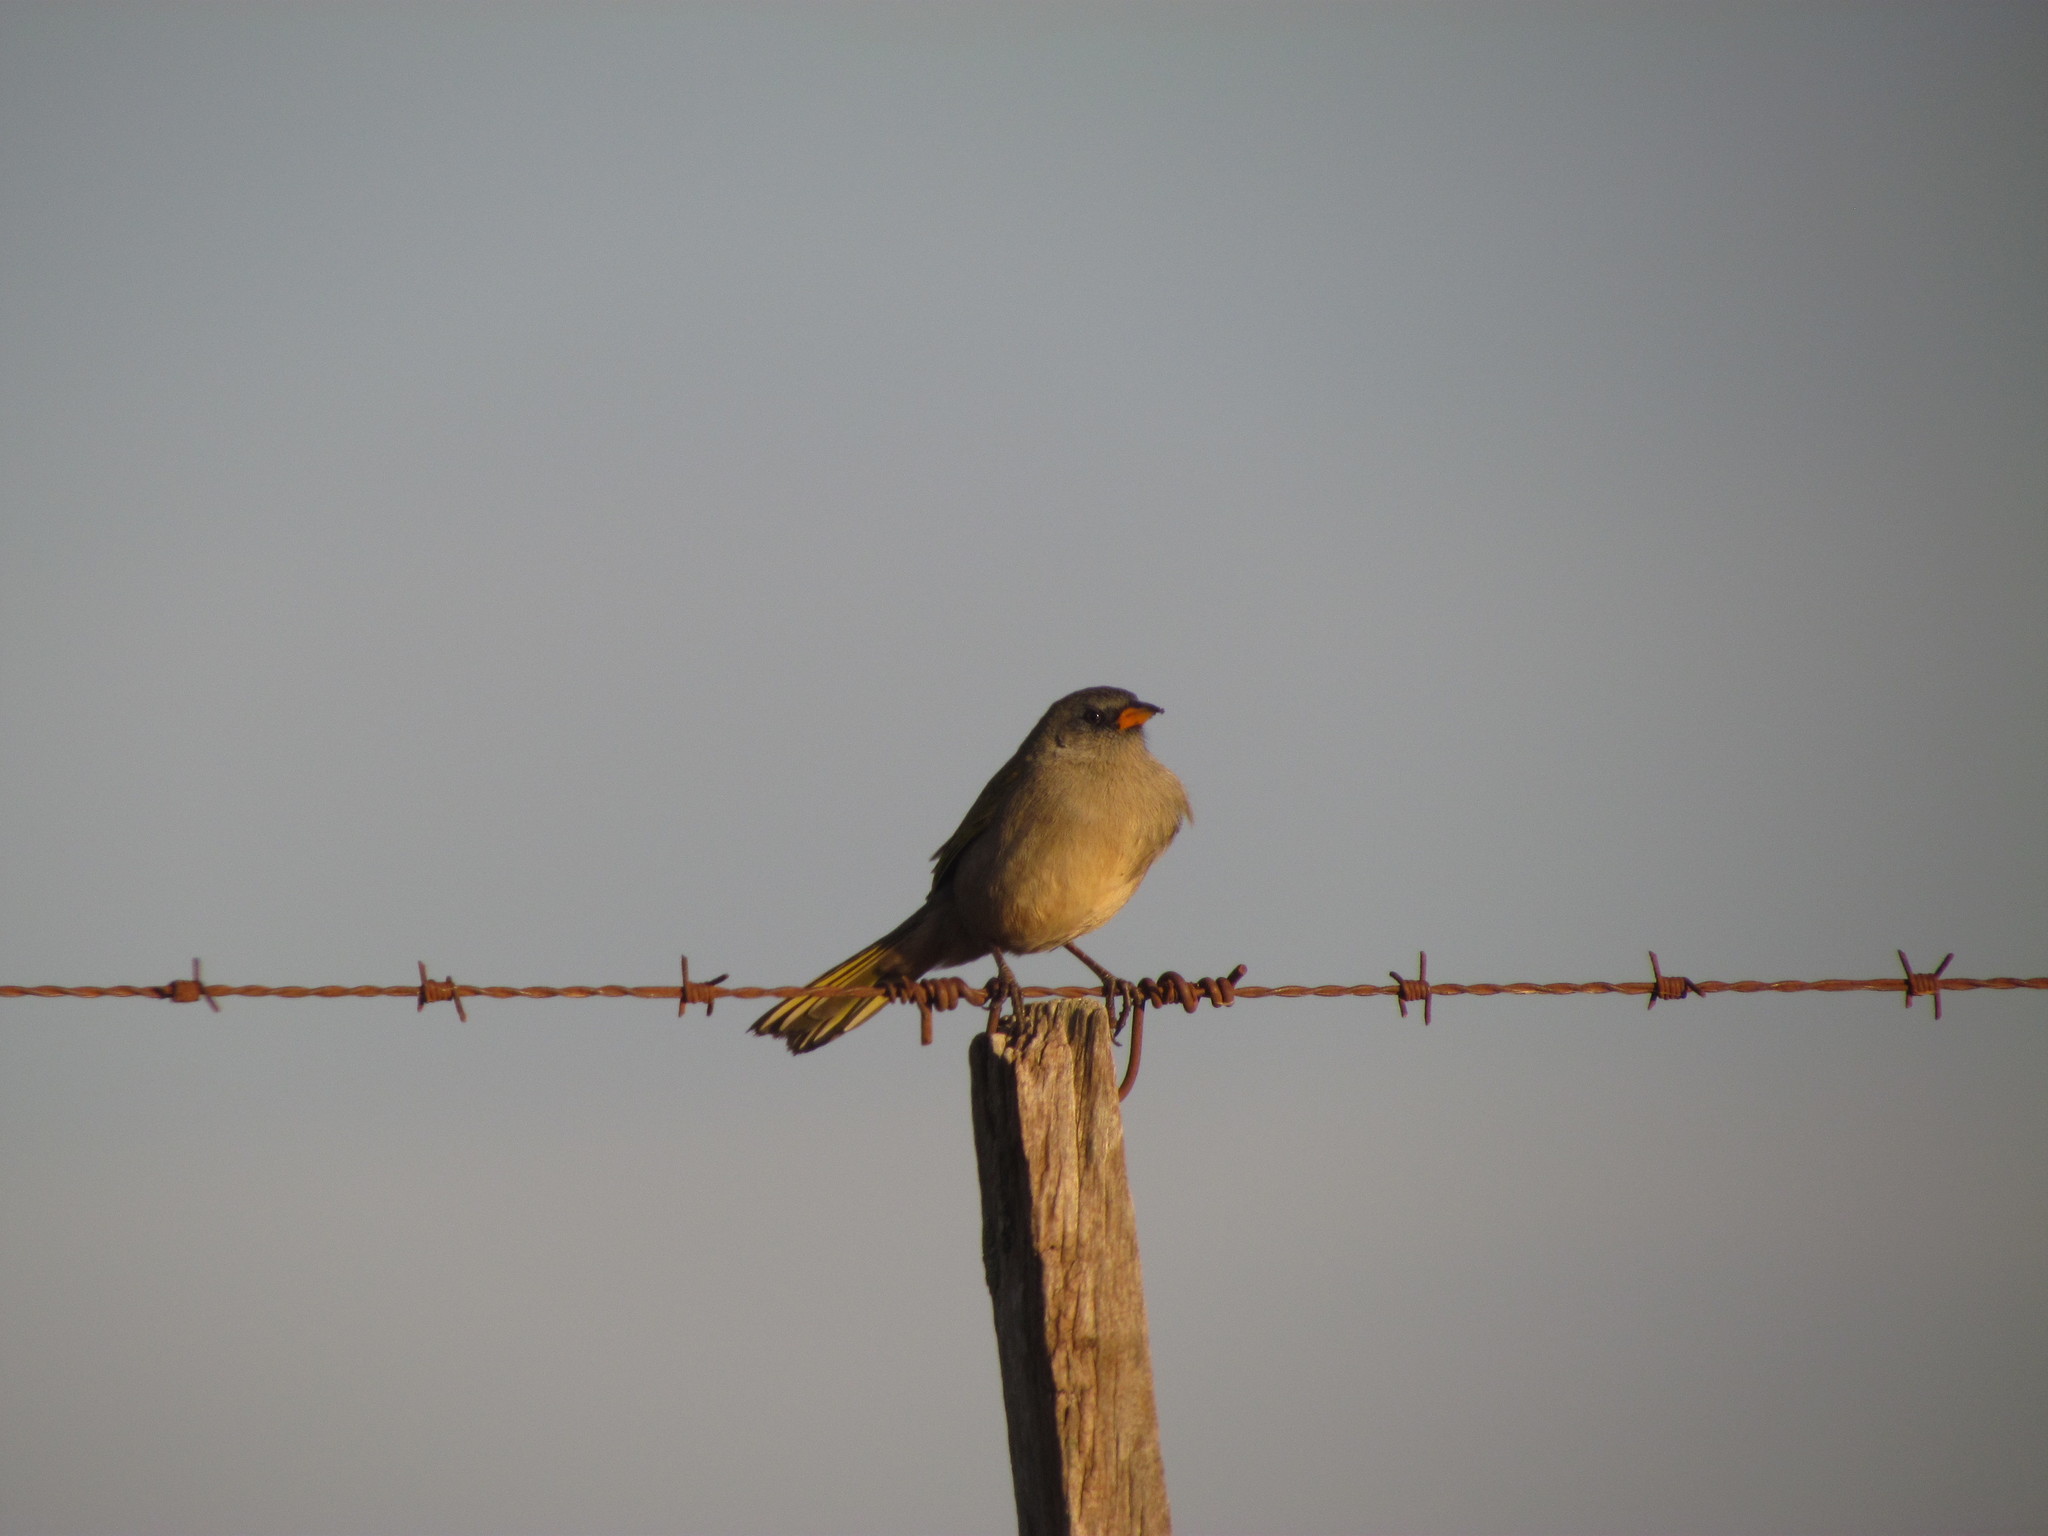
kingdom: Animalia
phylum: Chordata
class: Aves
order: Passeriformes
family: Thraupidae
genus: Embernagra
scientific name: Embernagra platensis
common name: Pampa finch
